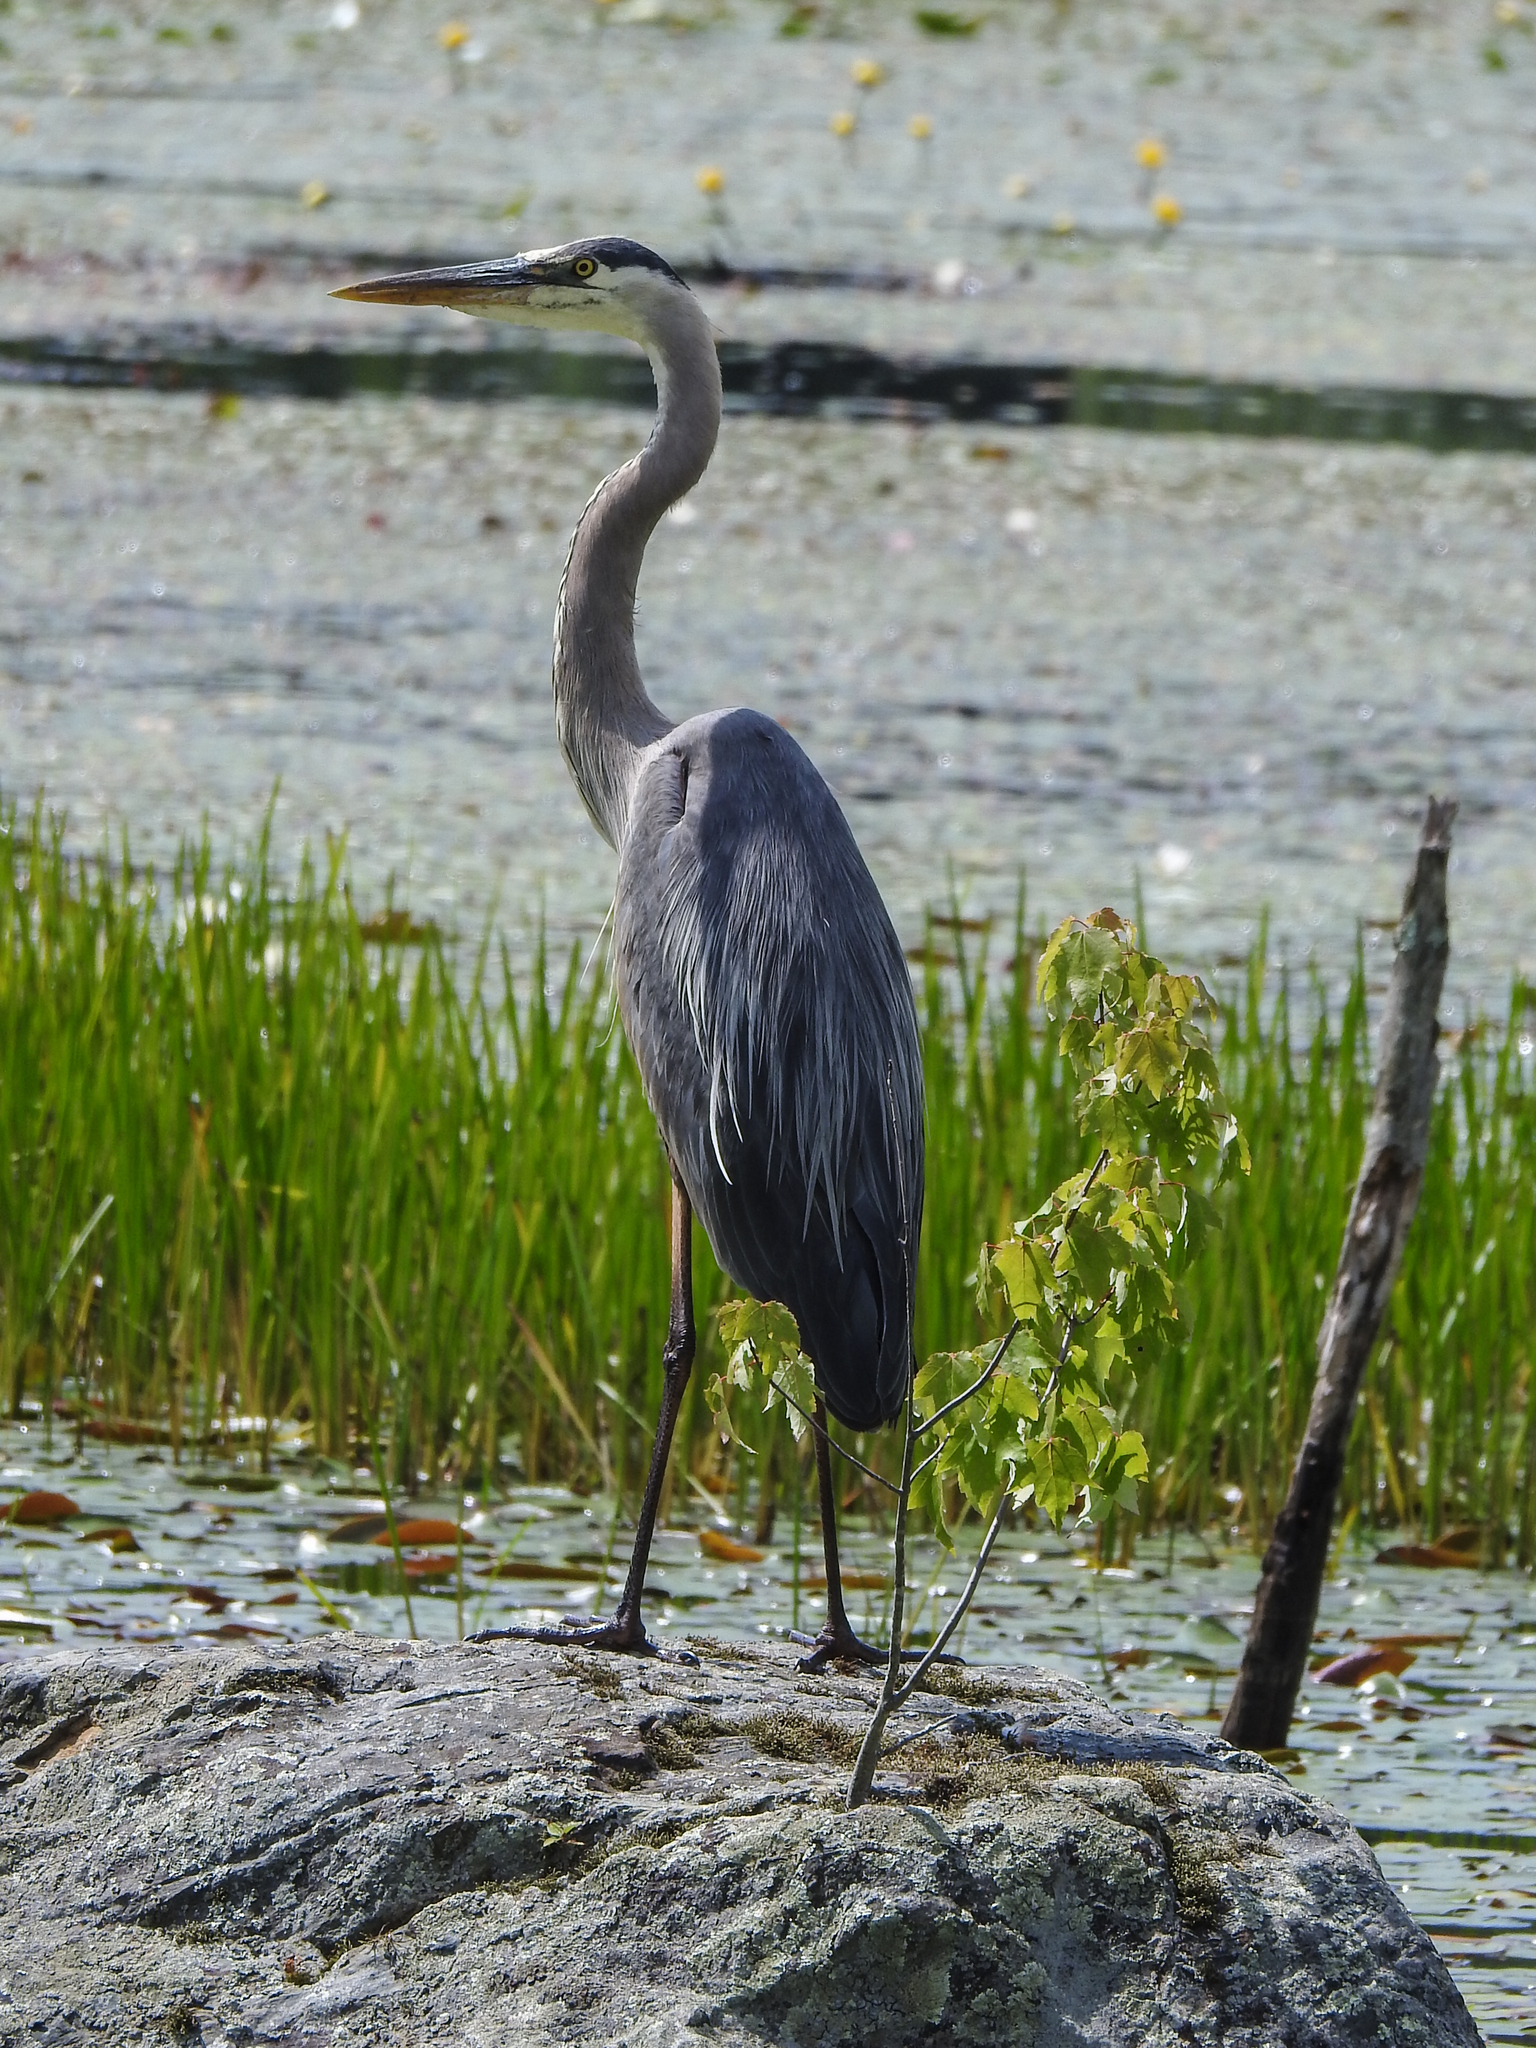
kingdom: Animalia
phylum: Chordata
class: Aves
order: Pelecaniformes
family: Ardeidae
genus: Ardea
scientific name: Ardea herodias
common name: Great blue heron
